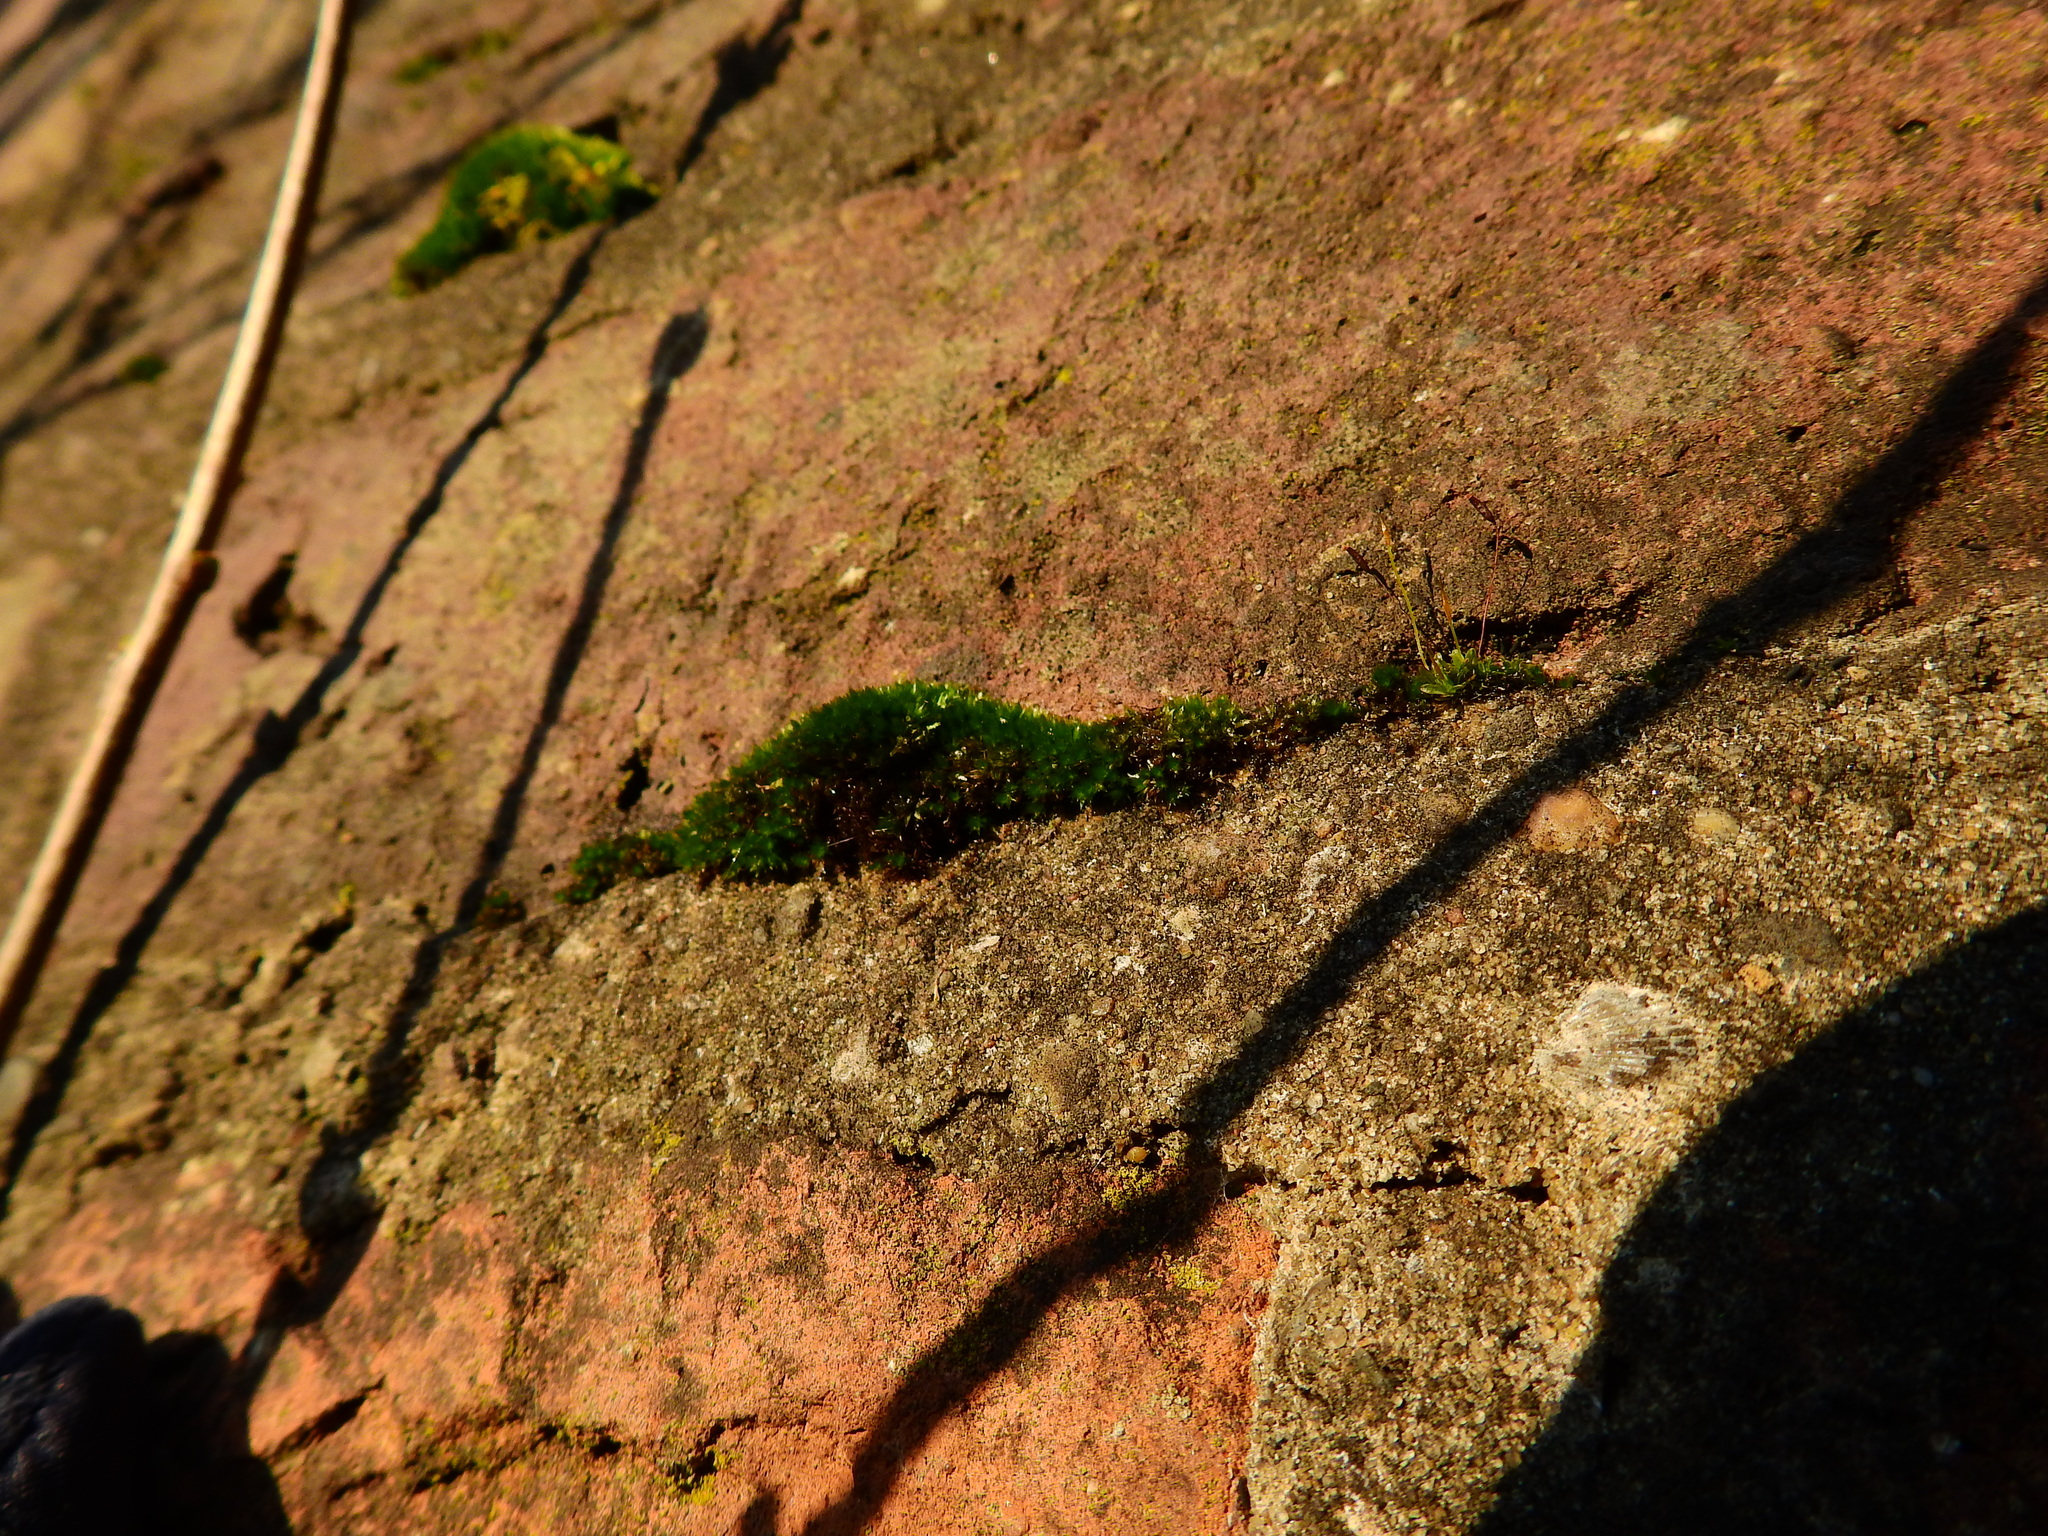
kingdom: Plantae
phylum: Bryophyta
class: Bryopsida
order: Pottiales
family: Pottiaceae
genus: Tortula
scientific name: Tortula muralis
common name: Wall screw-moss
